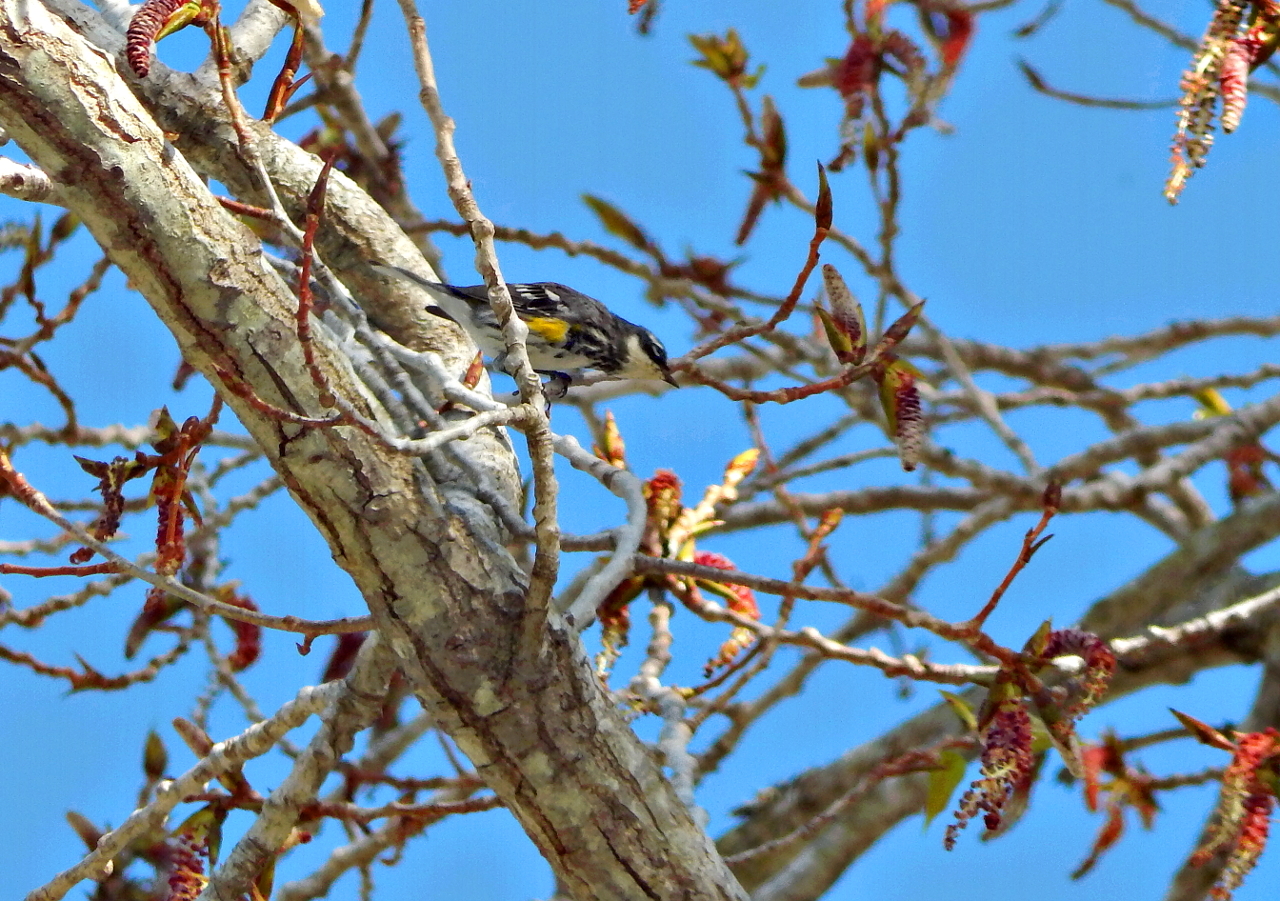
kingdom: Animalia
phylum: Chordata
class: Aves
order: Passeriformes
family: Parulidae
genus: Setophaga
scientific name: Setophaga coronata
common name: Myrtle warbler
